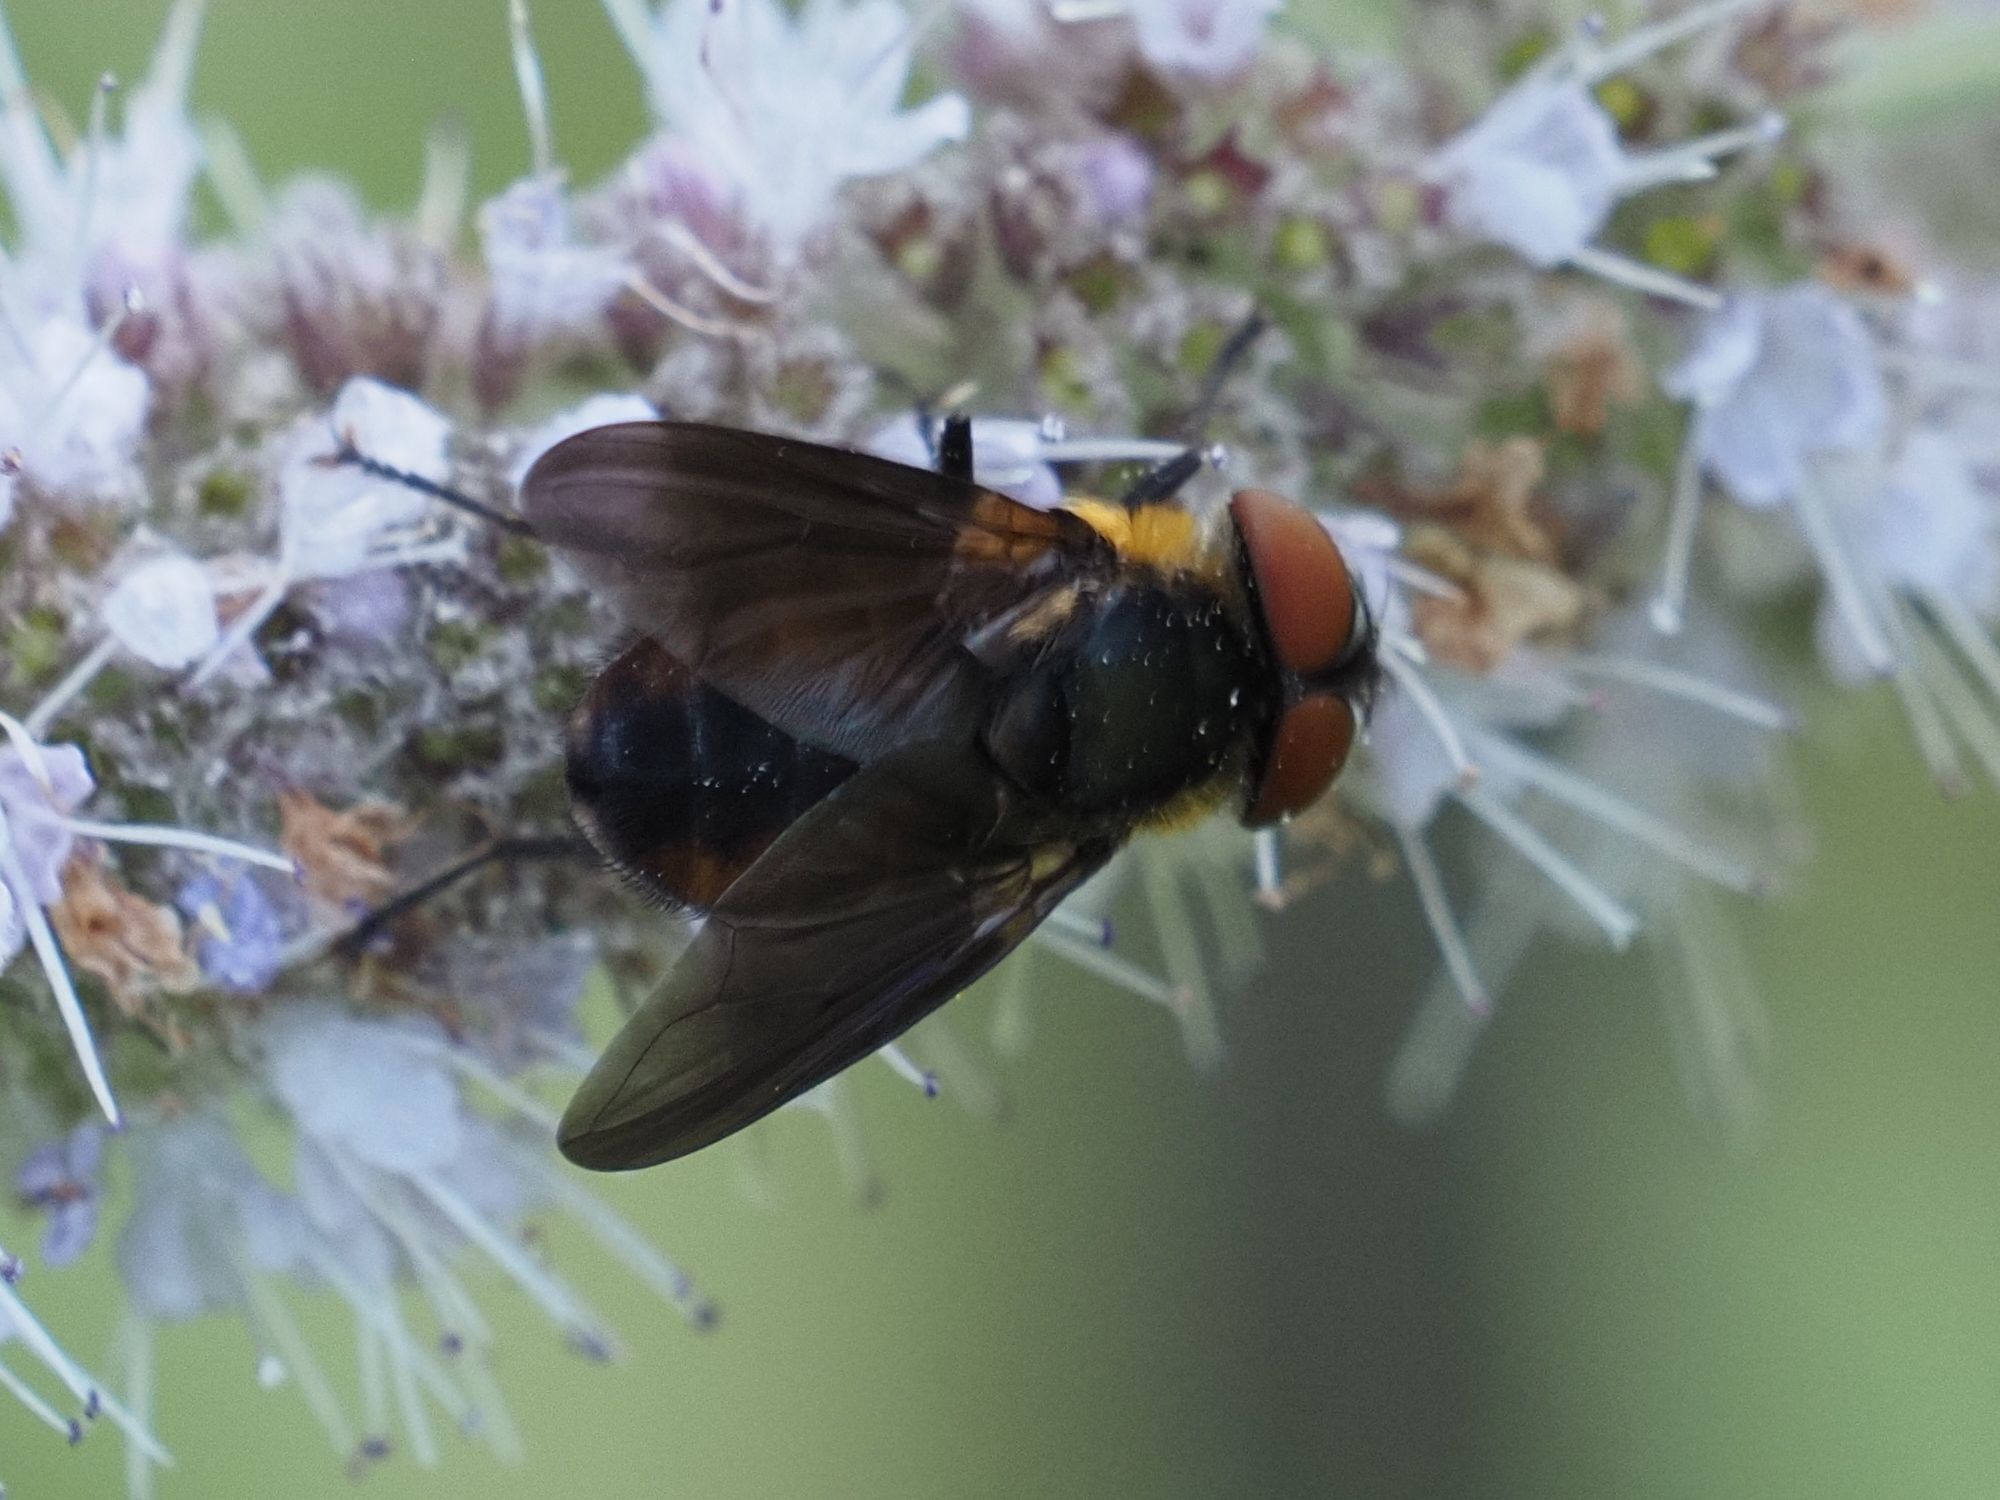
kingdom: Animalia
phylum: Arthropoda
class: Insecta
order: Diptera
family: Tachinidae
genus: Phasia
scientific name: Phasia hemiptera
